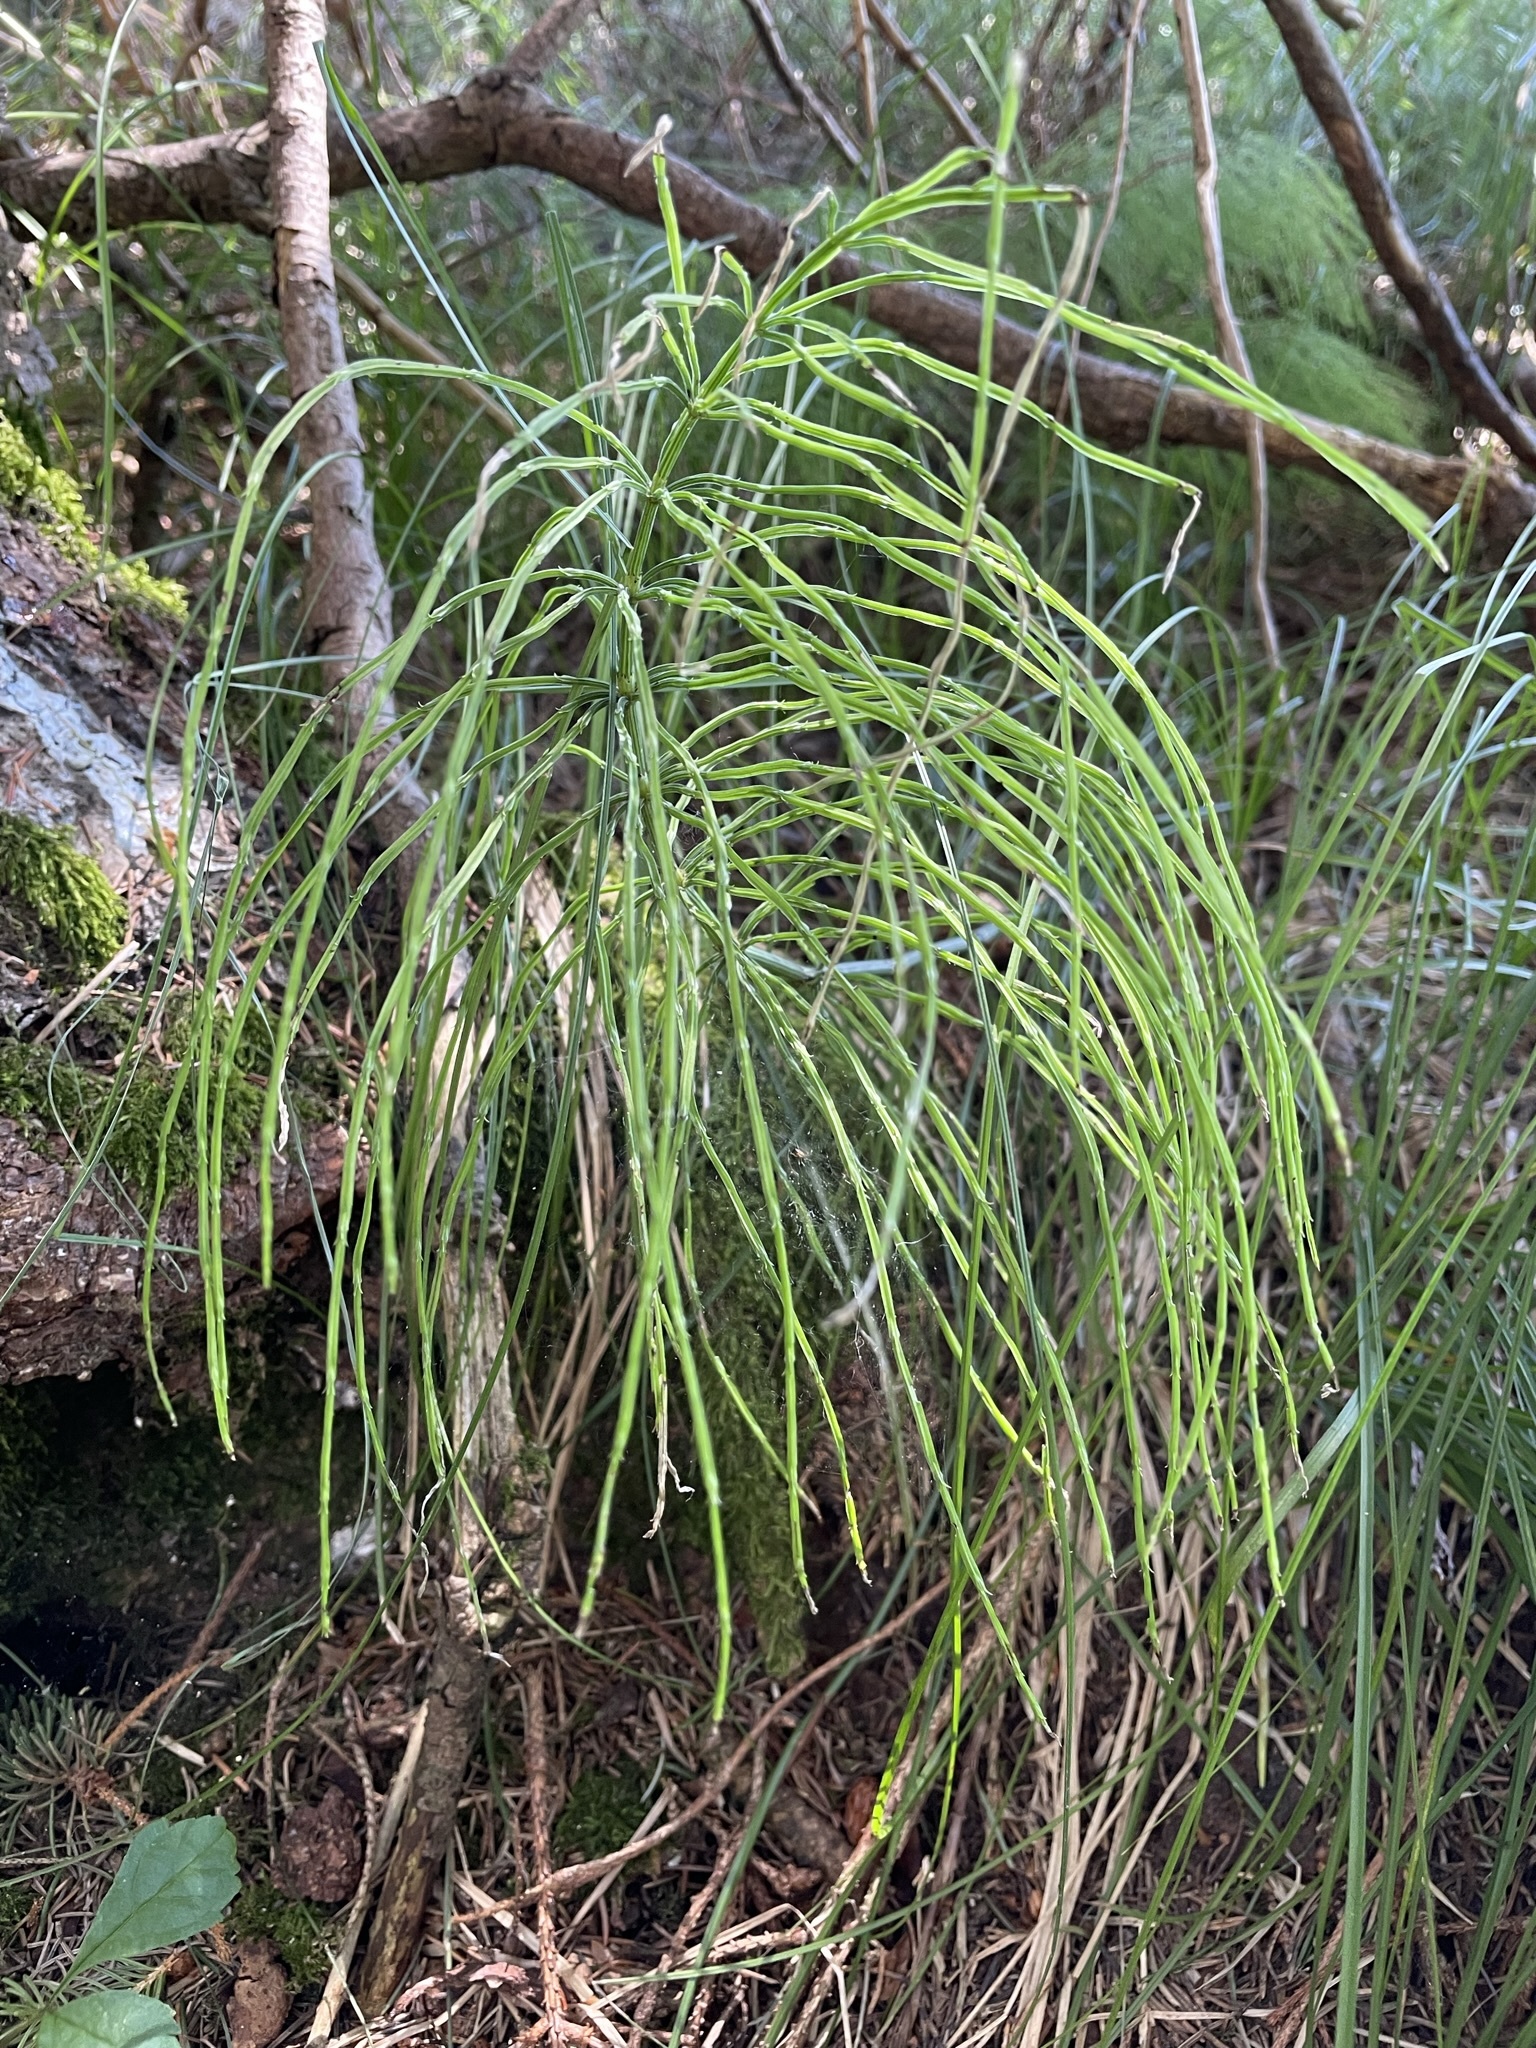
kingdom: Plantae
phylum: Tracheophyta
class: Polypodiopsida
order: Equisetales
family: Equisetaceae
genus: Equisetum
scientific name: Equisetum arvense
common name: Field horsetail
